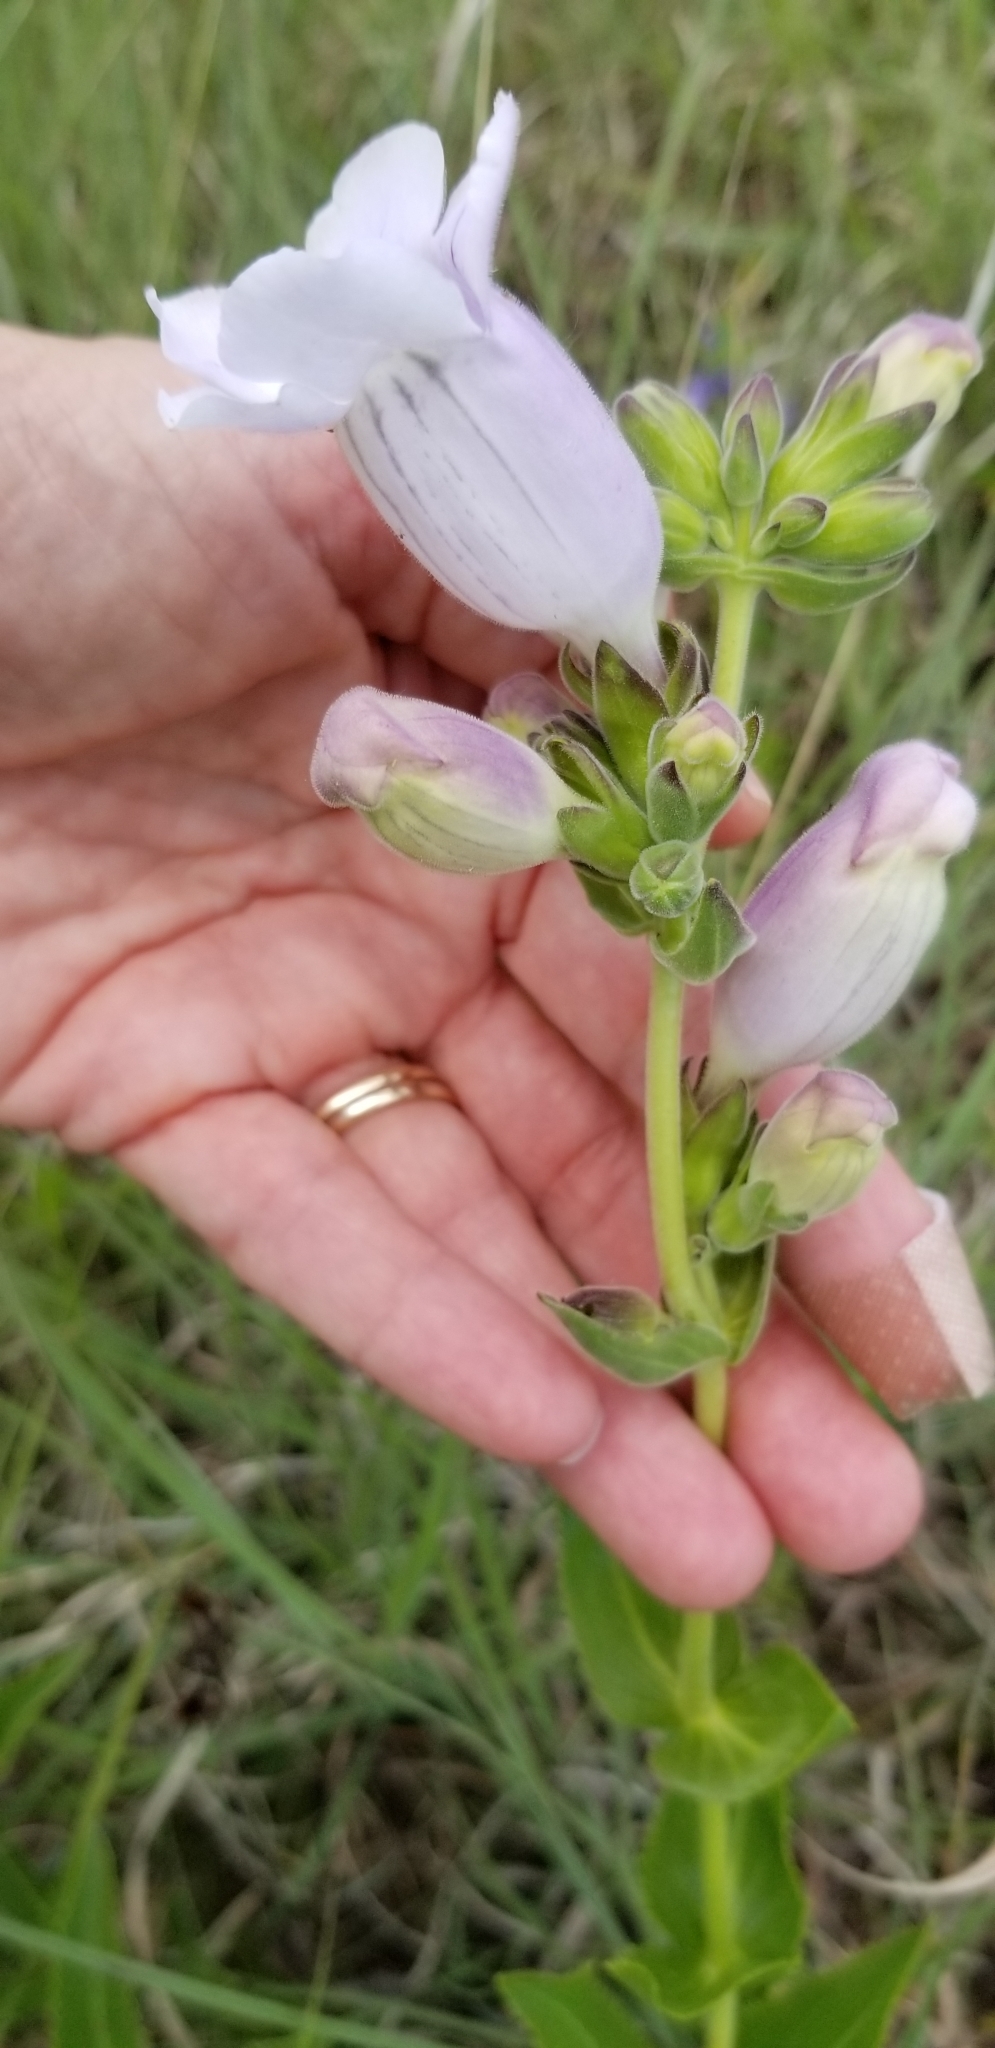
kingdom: Plantae
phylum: Tracheophyta
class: Magnoliopsida
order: Lamiales
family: Plantaginaceae
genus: Penstemon
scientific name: Penstemon cobaea
